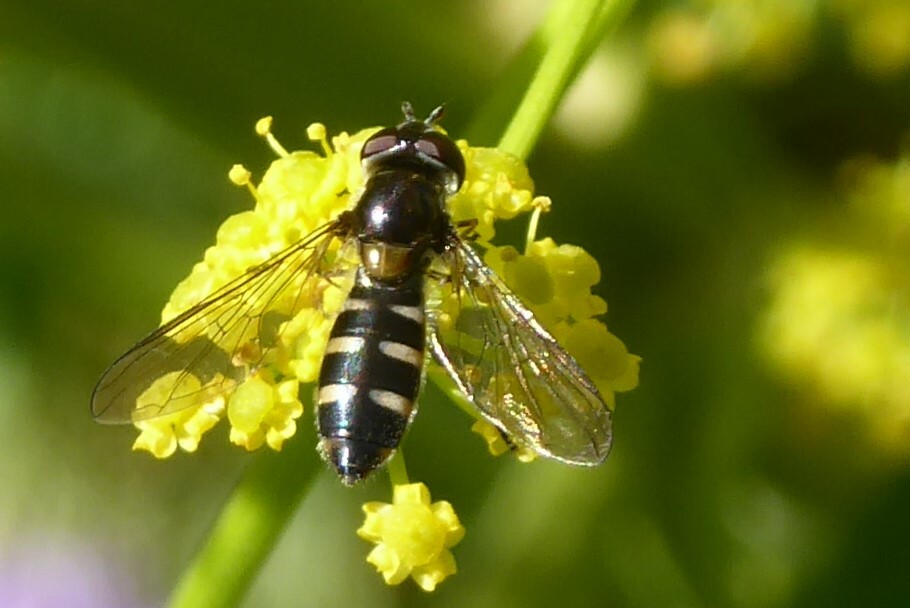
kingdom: Animalia
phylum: Arthropoda
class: Insecta
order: Diptera
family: Syrphidae
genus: Melangyna
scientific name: Melangyna novaezelandiae
